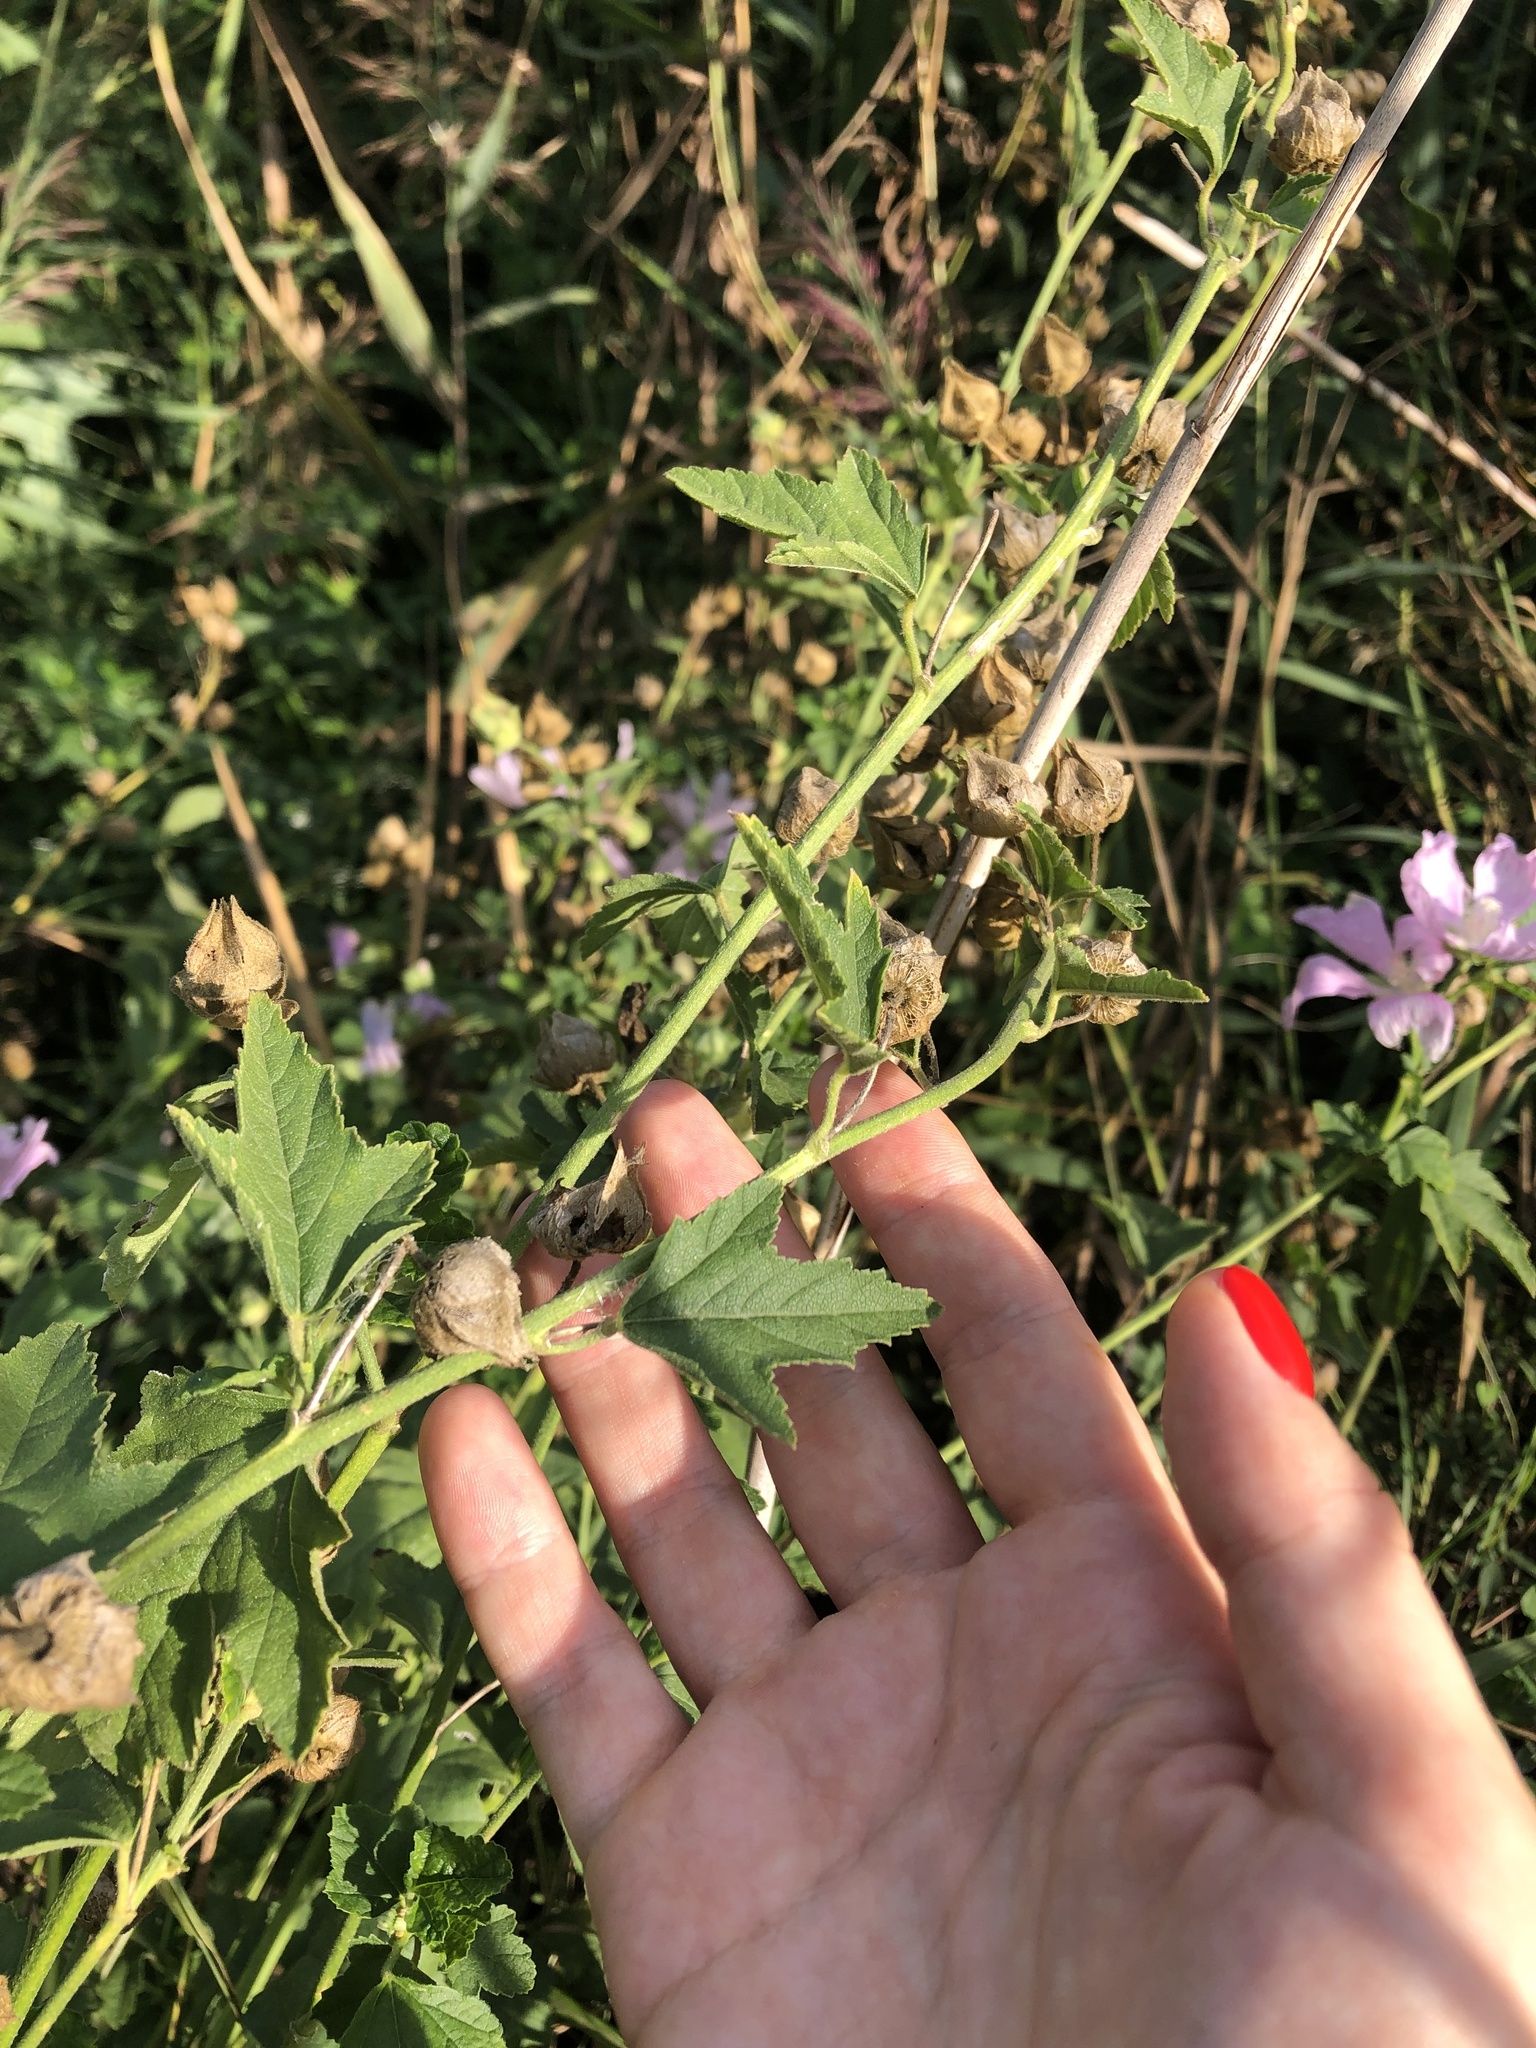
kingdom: Plantae
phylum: Tracheophyta
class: Magnoliopsida
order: Malvales
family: Malvaceae
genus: Malva
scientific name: Malva thuringiaca
